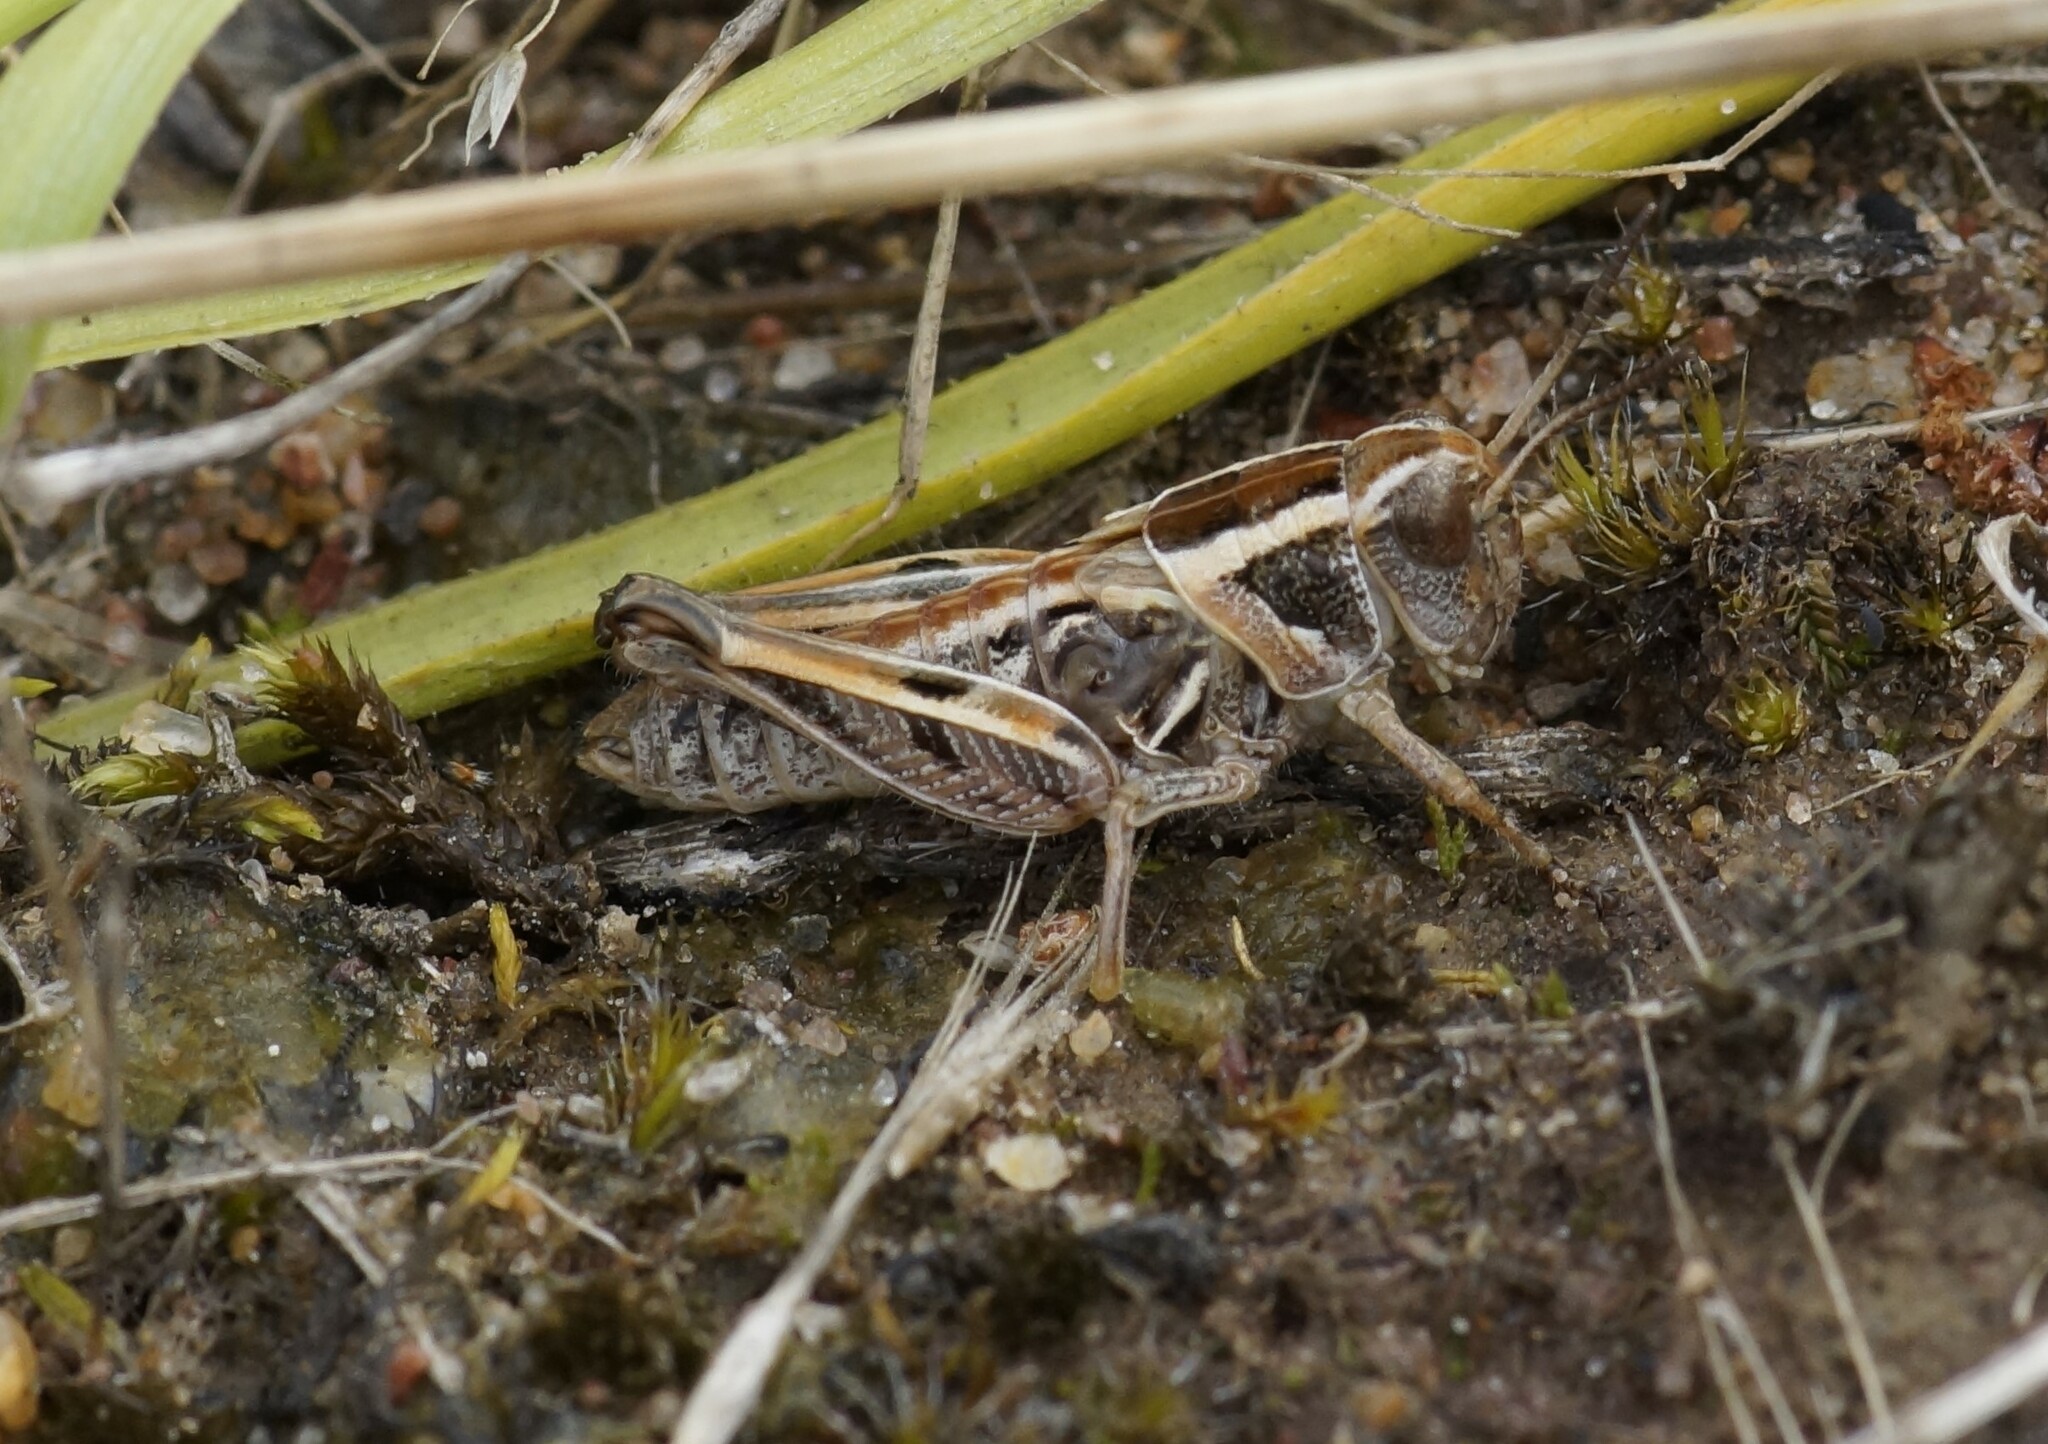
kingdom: Animalia
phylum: Arthropoda
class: Insecta
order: Orthoptera
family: Acrididae
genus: Brachyexarna
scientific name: Brachyexarna lobipennis
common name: Stripe-winged meadow grasshopper
